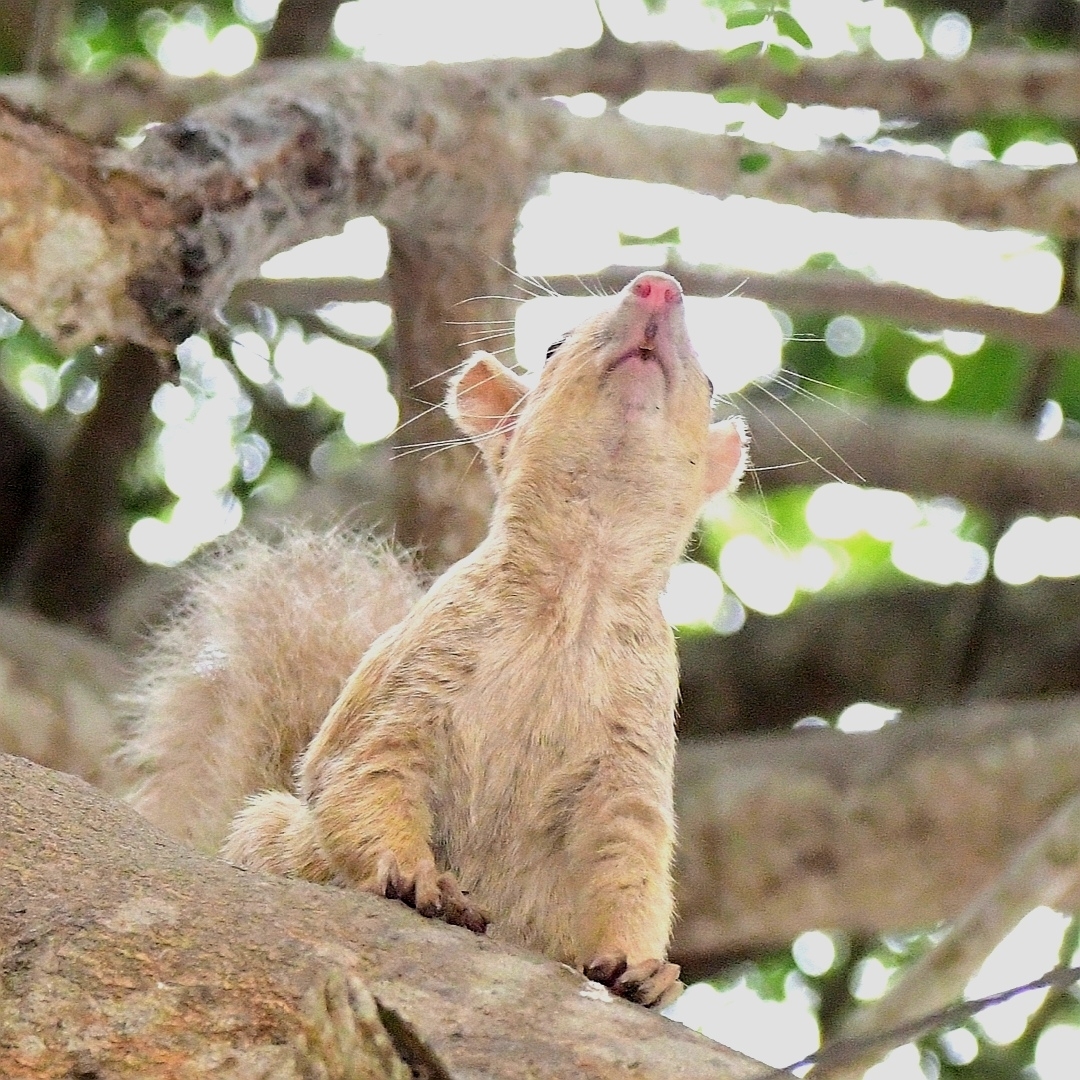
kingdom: Animalia
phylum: Chordata
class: Mammalia
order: Rodentia
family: Sciuridae
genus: Sciurus
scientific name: Sciurus stramineus
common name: Guayaquil squirrel
